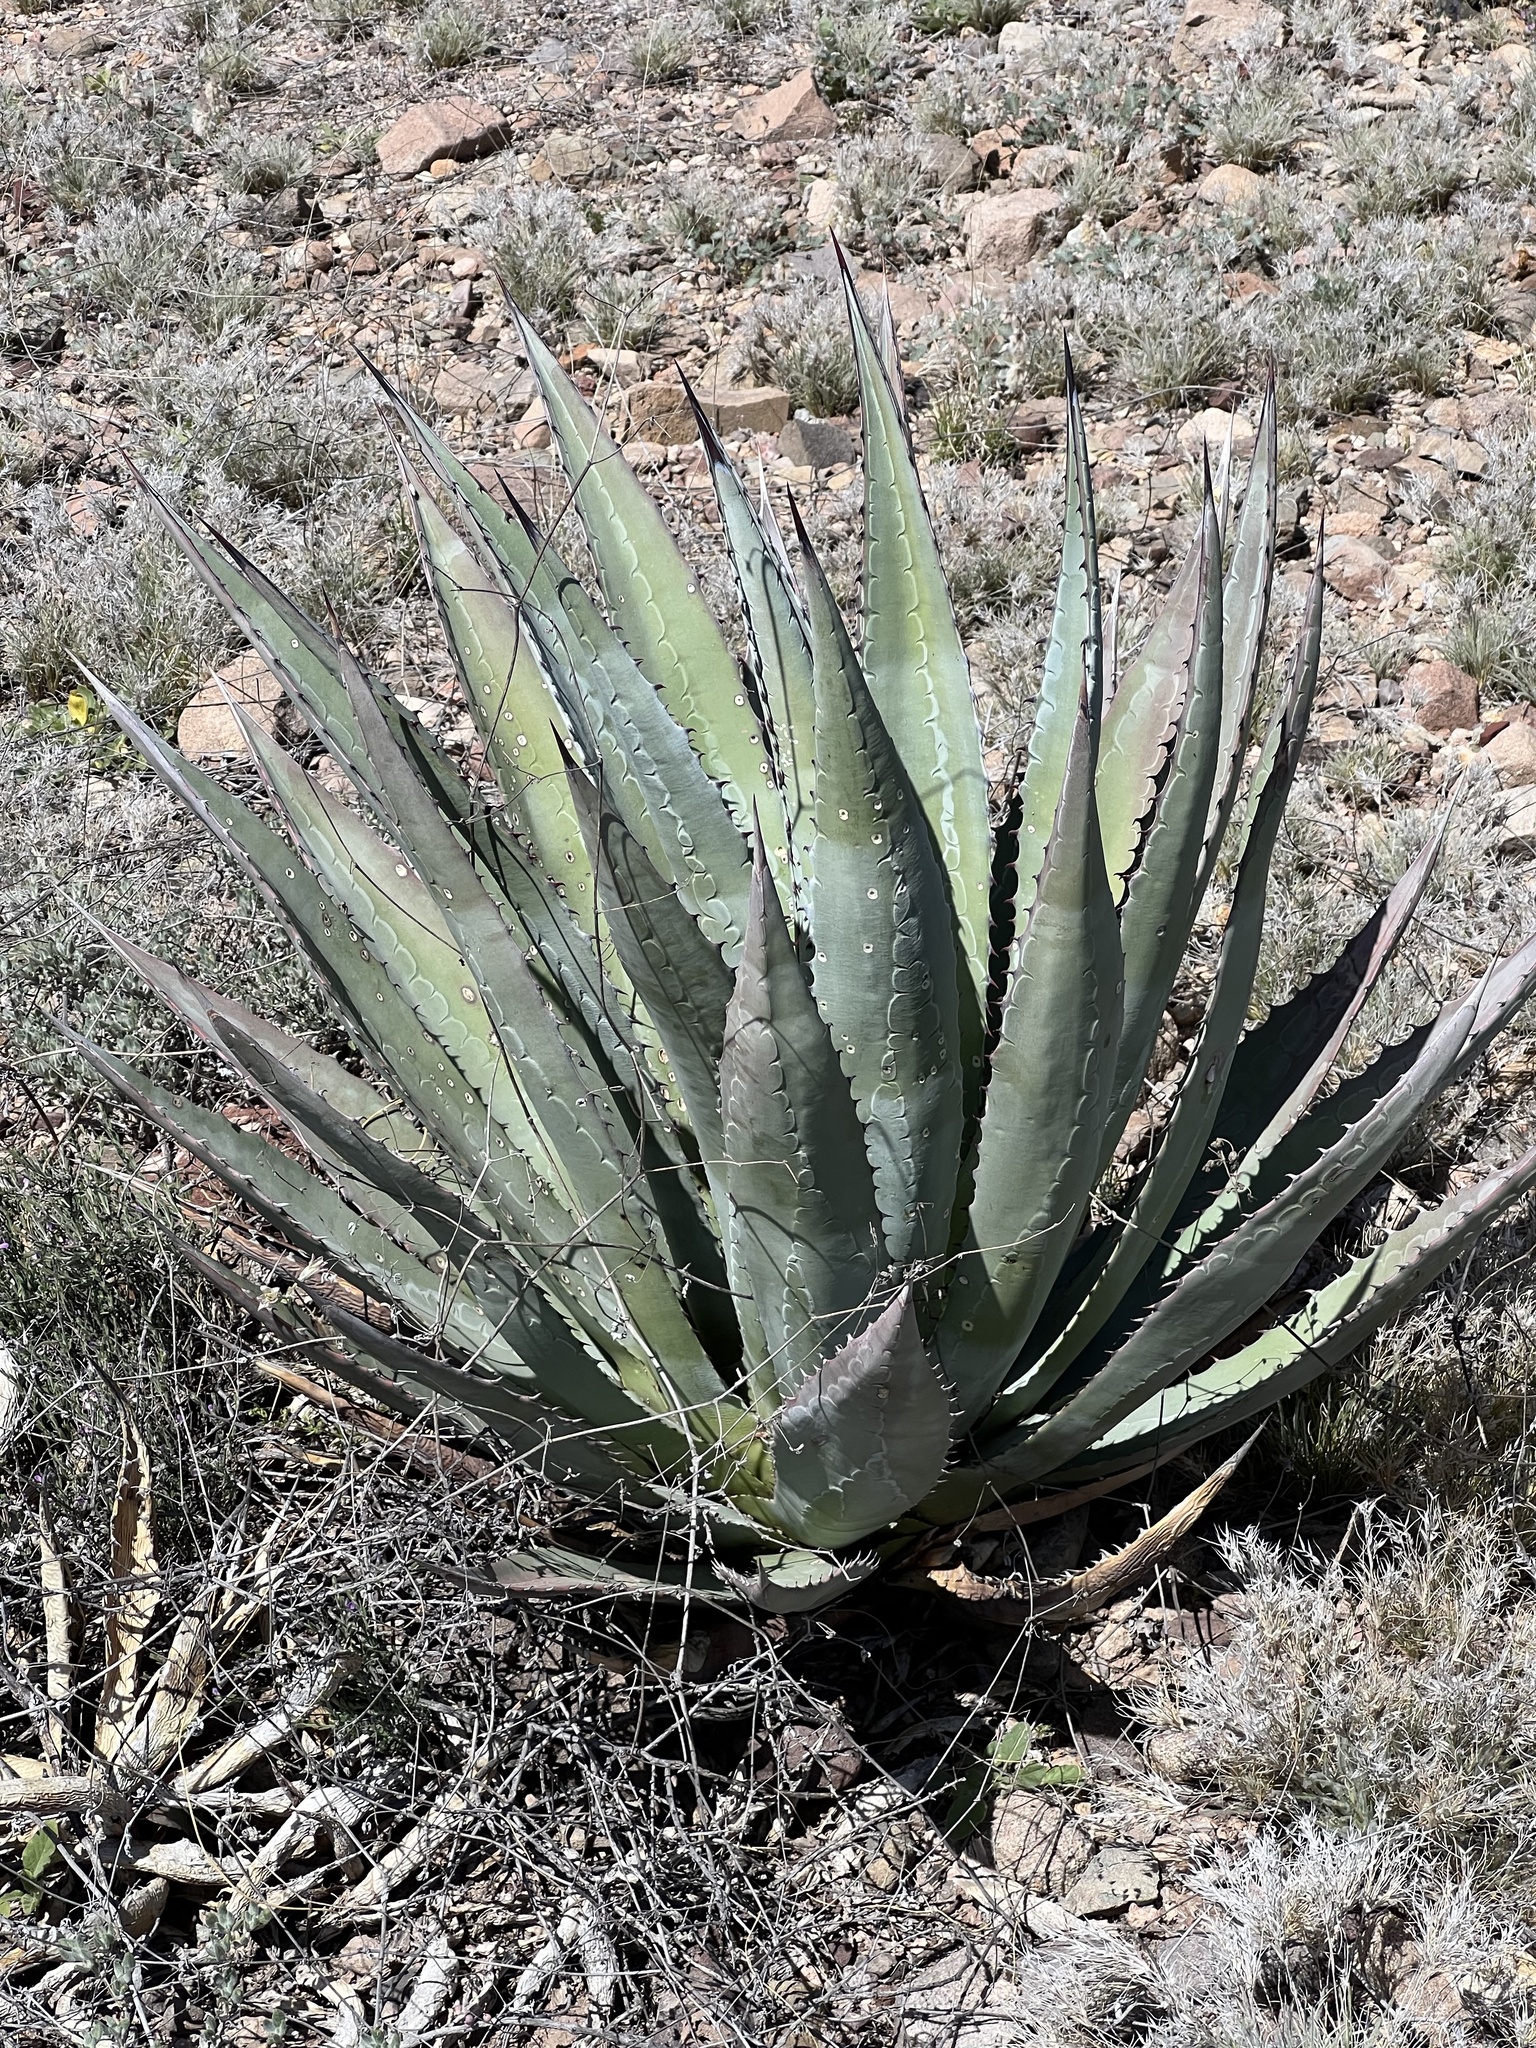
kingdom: Plantae
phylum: Tracheophyta
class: Liliopsida
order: Asparagales
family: Asparagaceae
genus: Agave
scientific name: Agave palmeri
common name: Palmer agave
